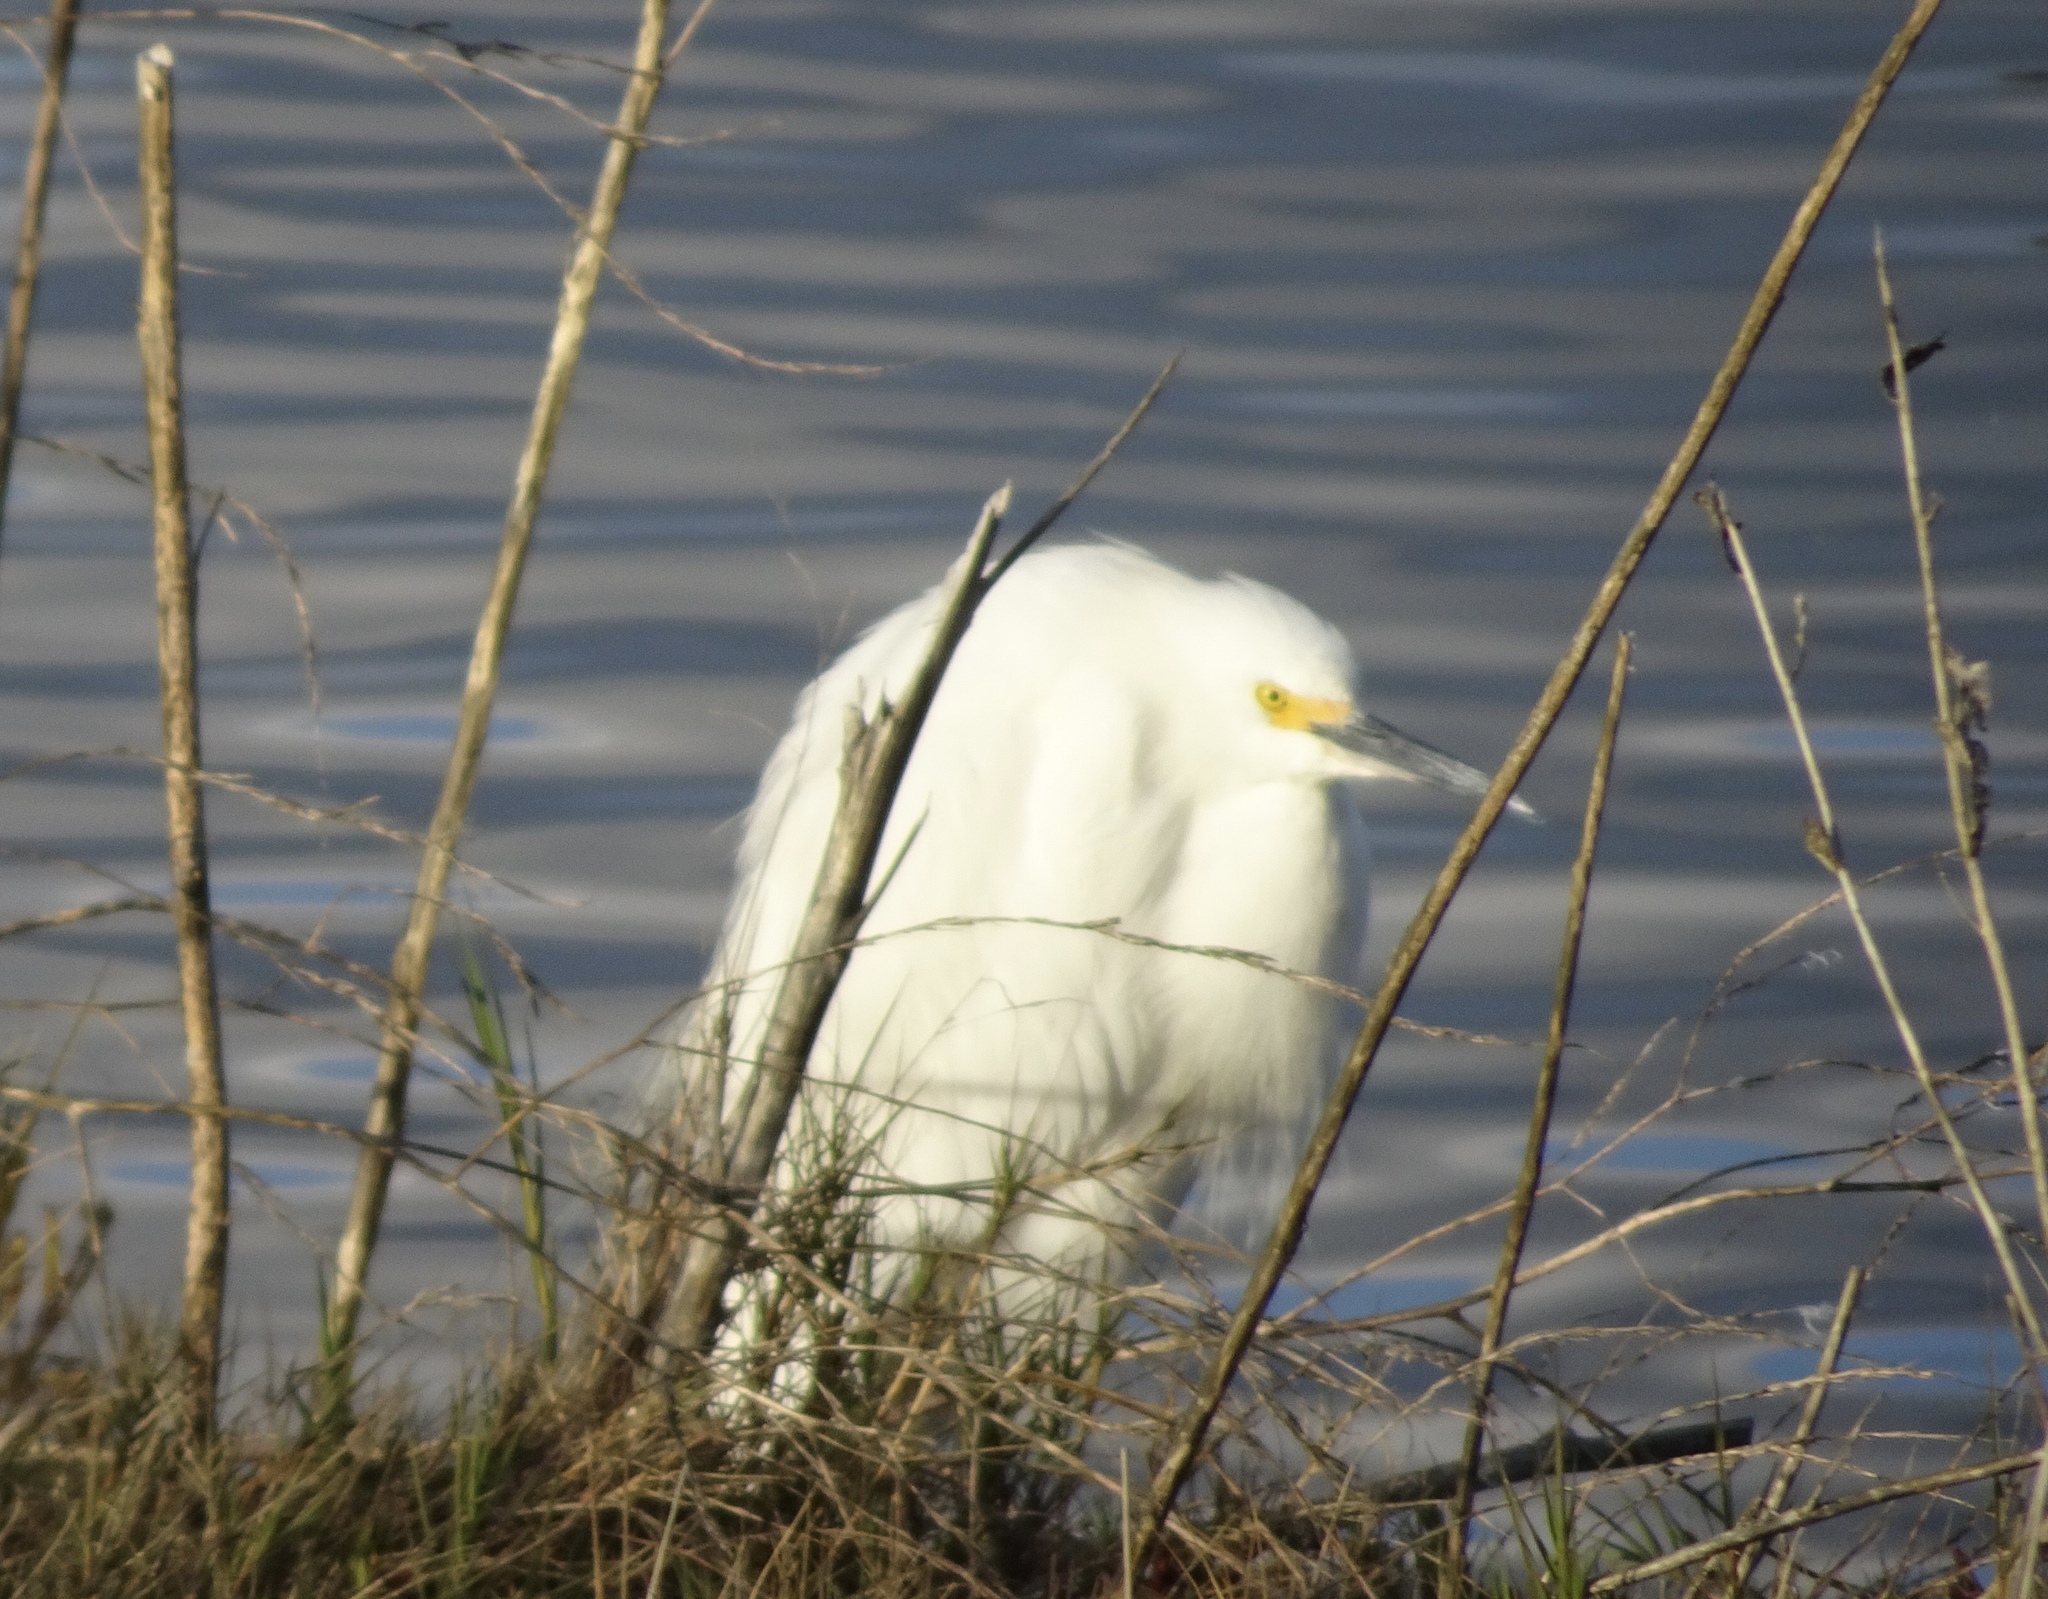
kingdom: Animalia
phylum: Chordata
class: Aves
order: Pelecaniformes
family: Ardeidae
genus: Egretta
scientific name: Egretta thula
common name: Snowy egret
